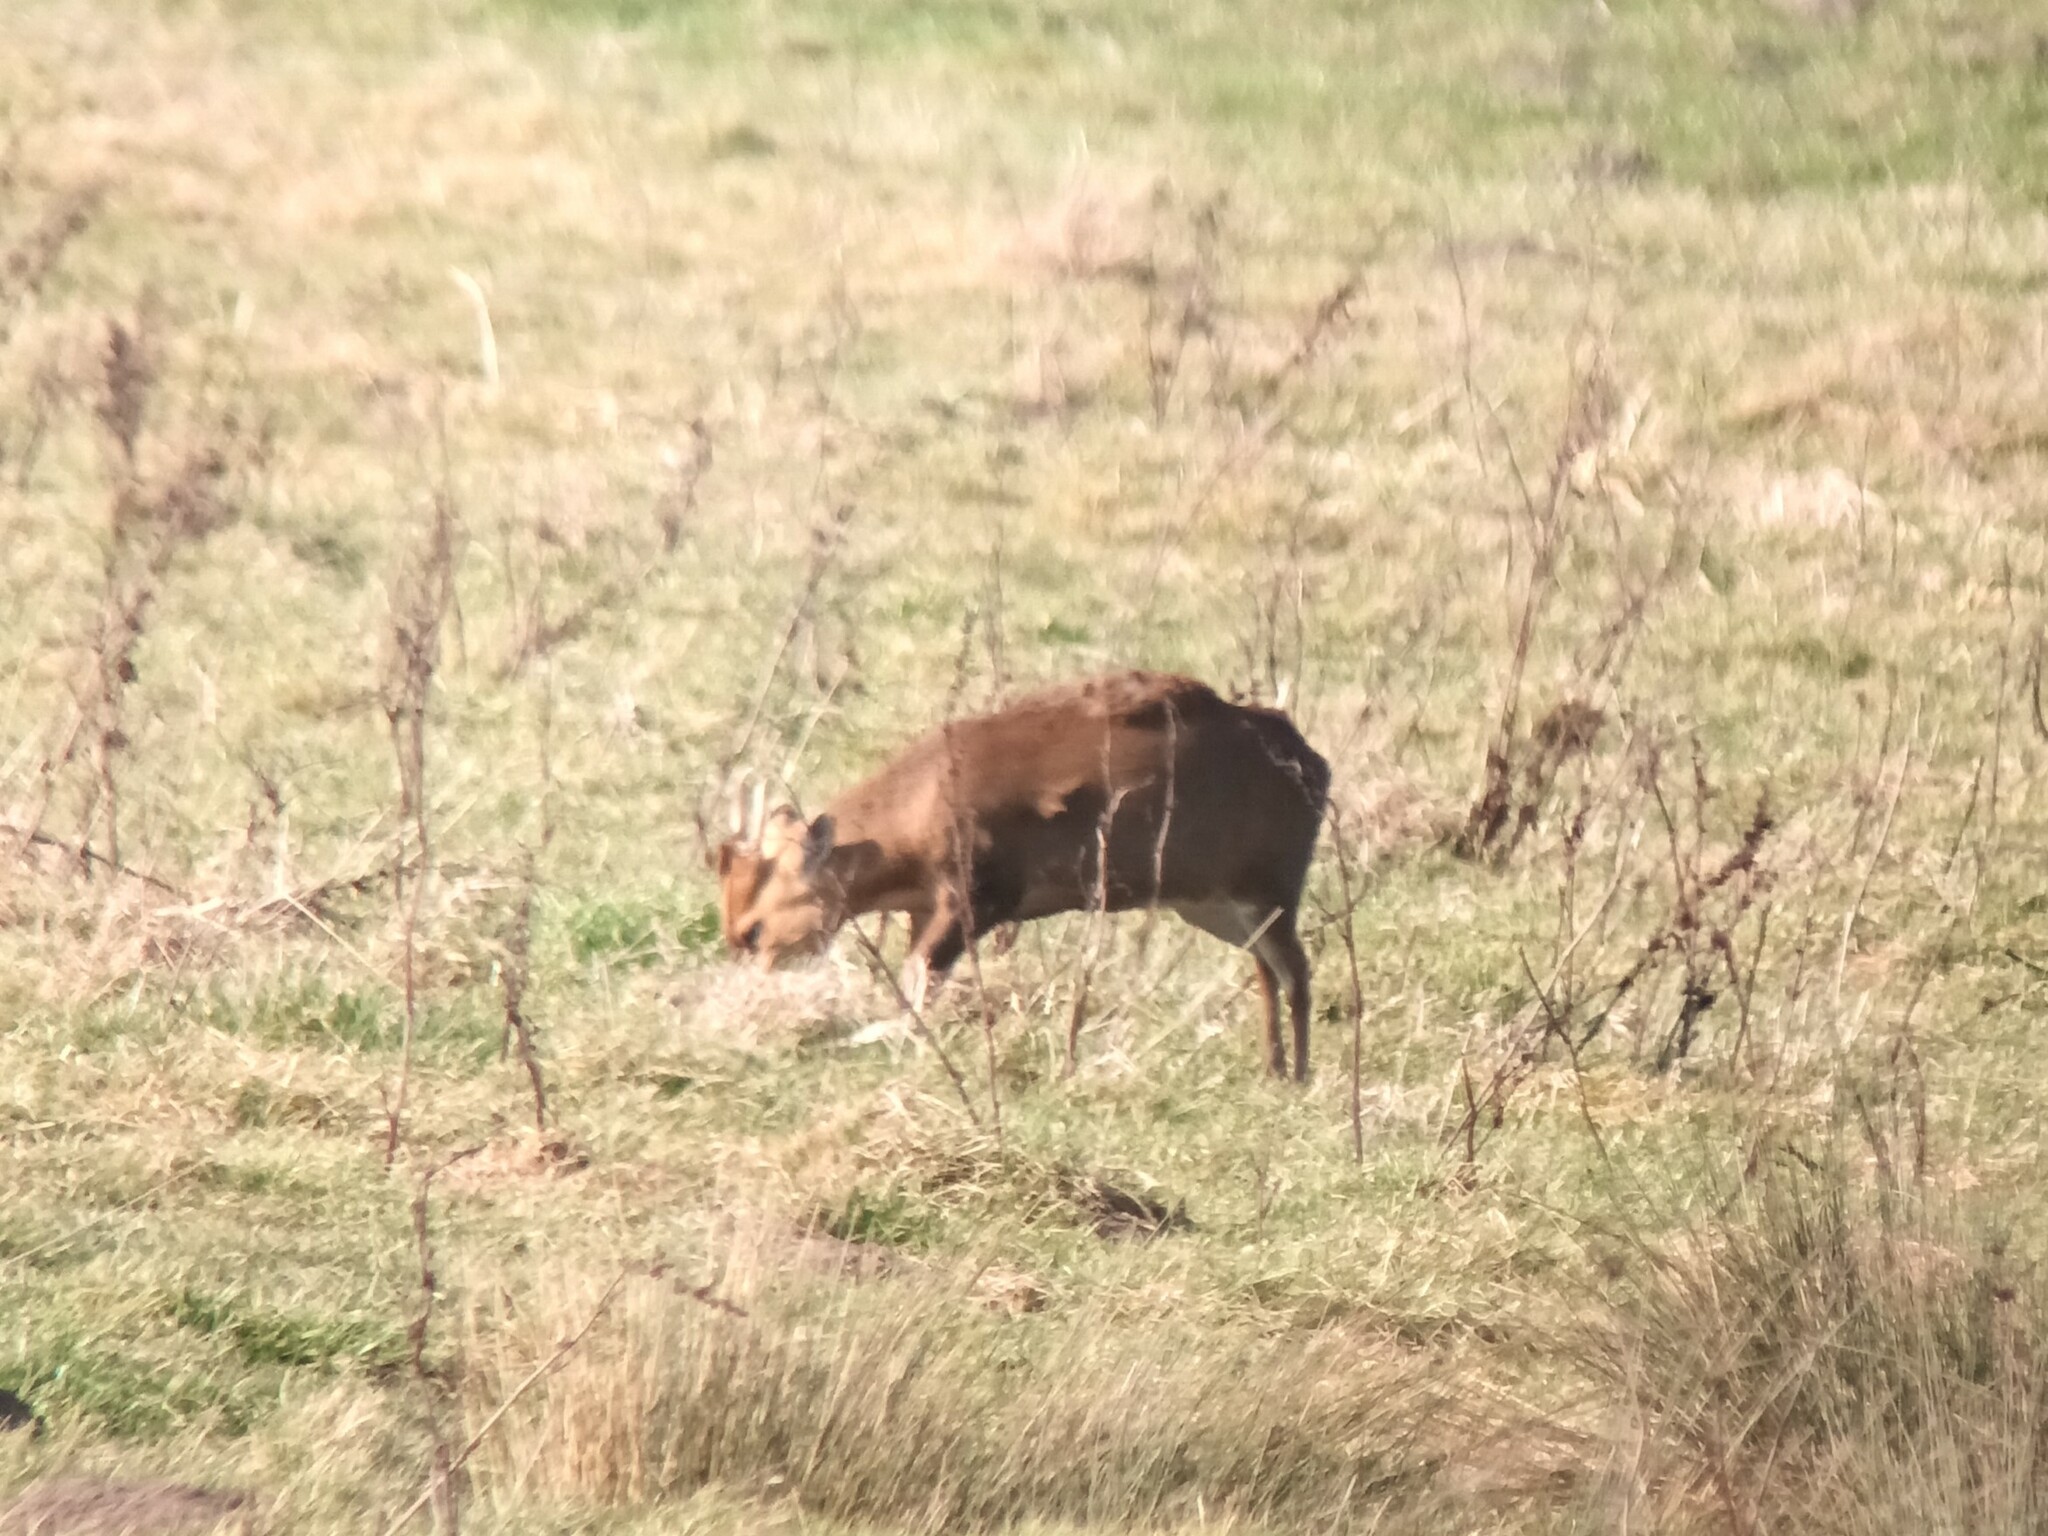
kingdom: Animalia
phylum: Chordata
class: Mammalia
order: Artiodactyla
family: Cervidae
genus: Muntiacus
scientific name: Muntiacus reevesi
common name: Reeves' muntjac
